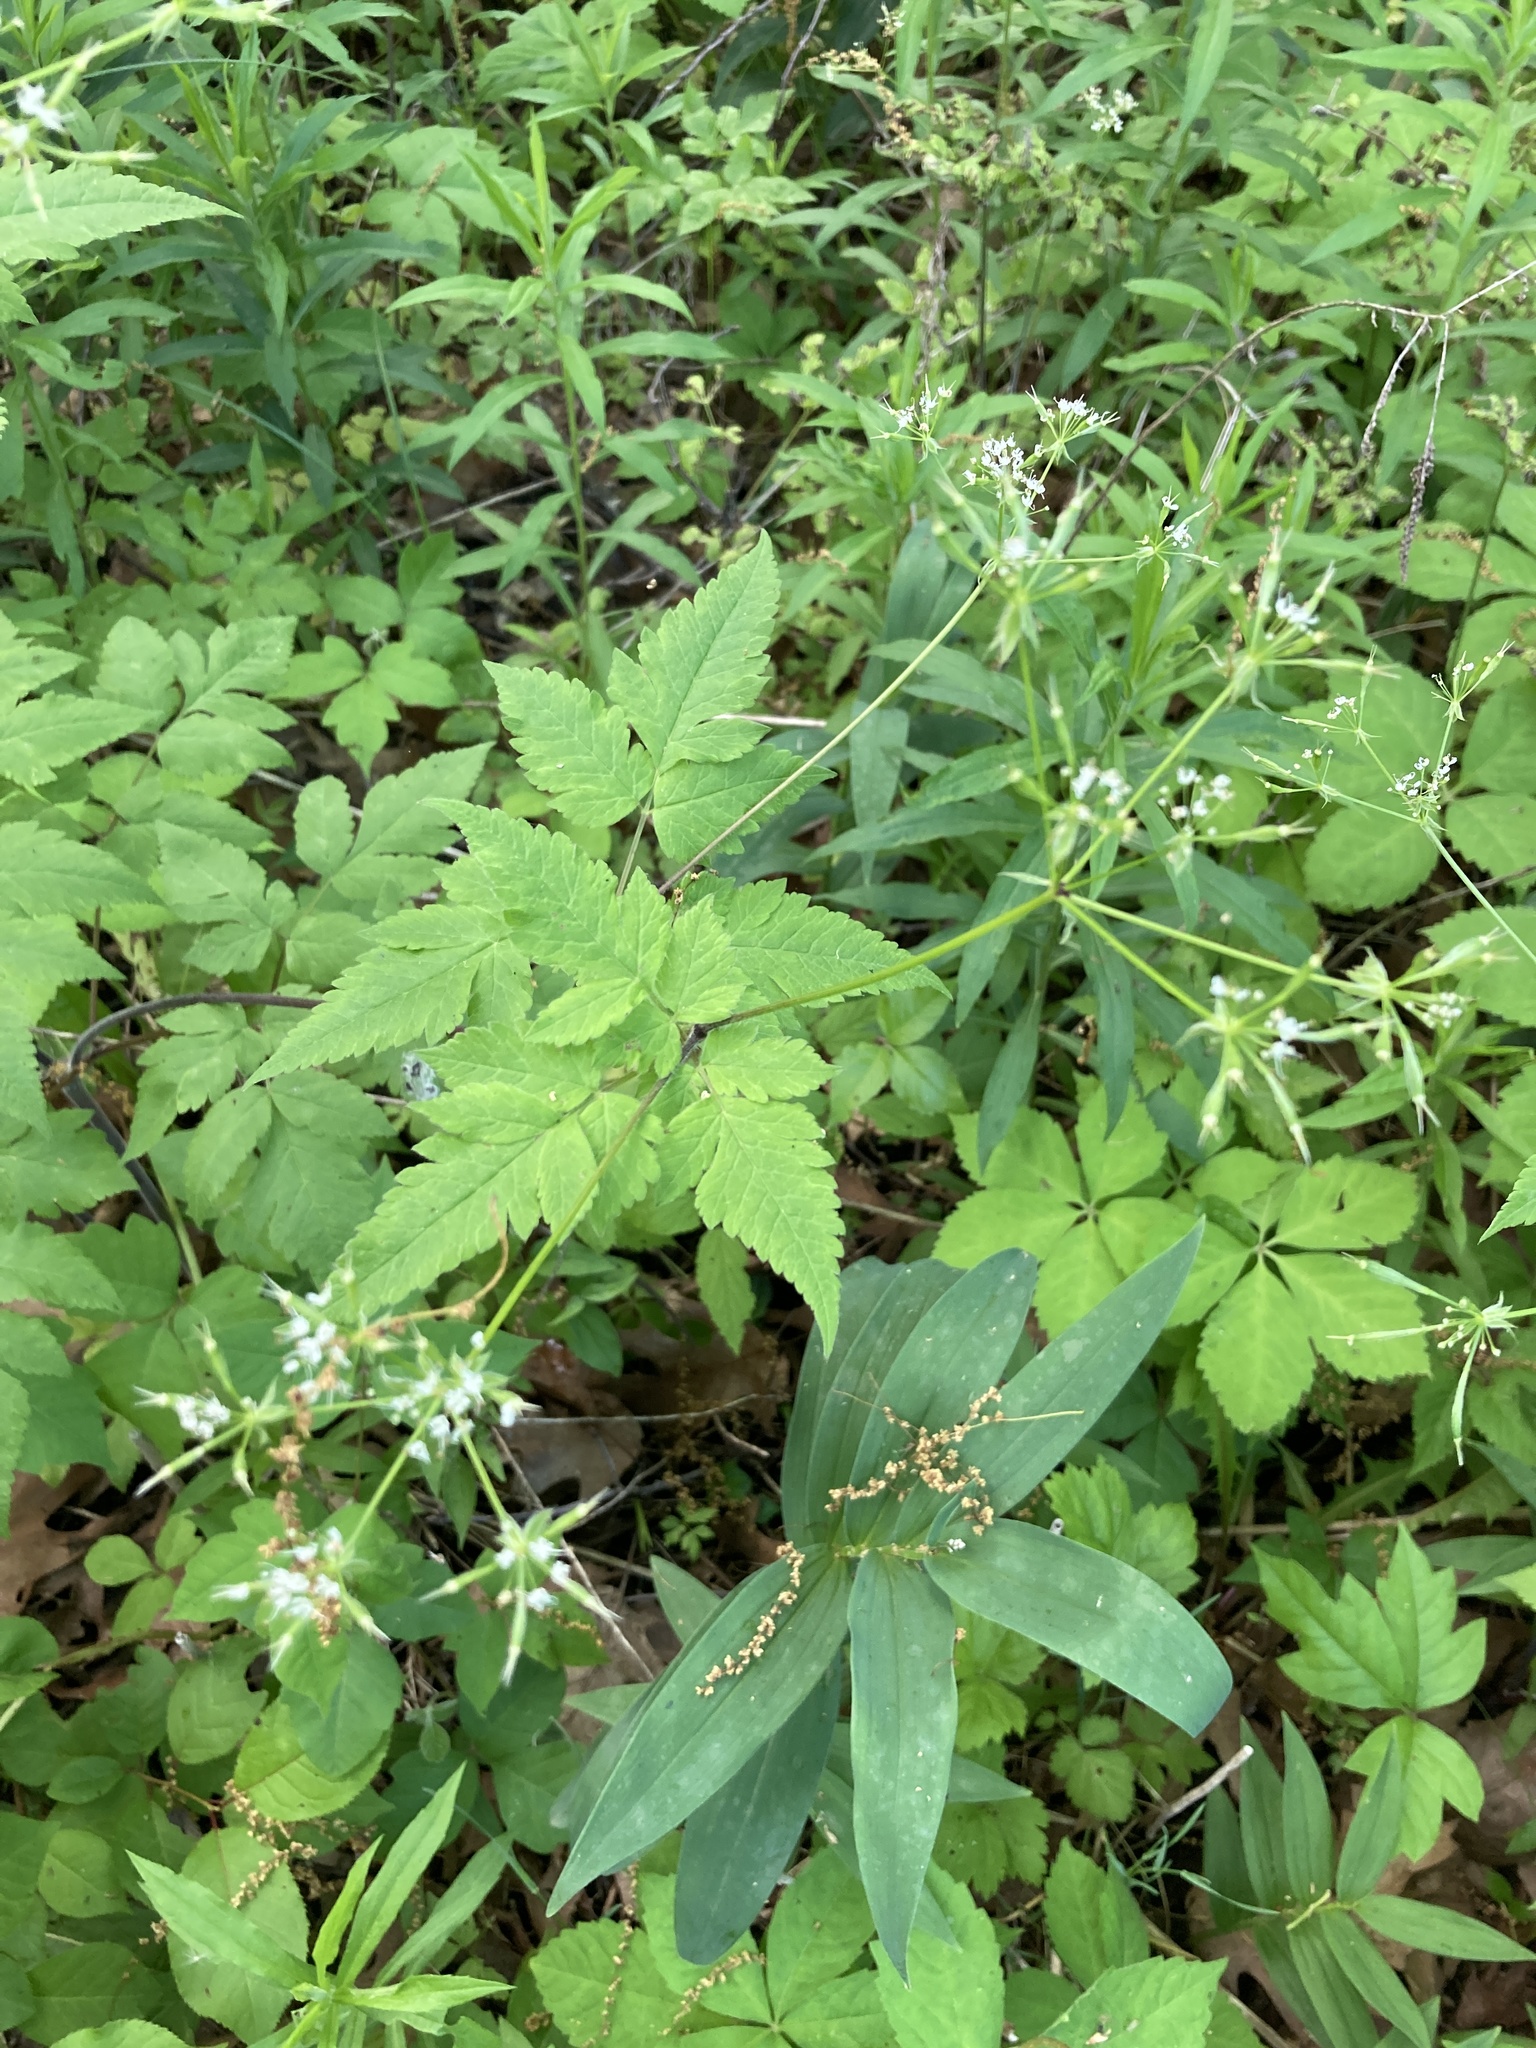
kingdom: Plantae
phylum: Tracheophyta
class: Magnoliopsida
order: Apiales
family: Apiaceae
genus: Osmorhiza
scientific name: Osmorhiza longistylis
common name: Smooth sweet cicely
